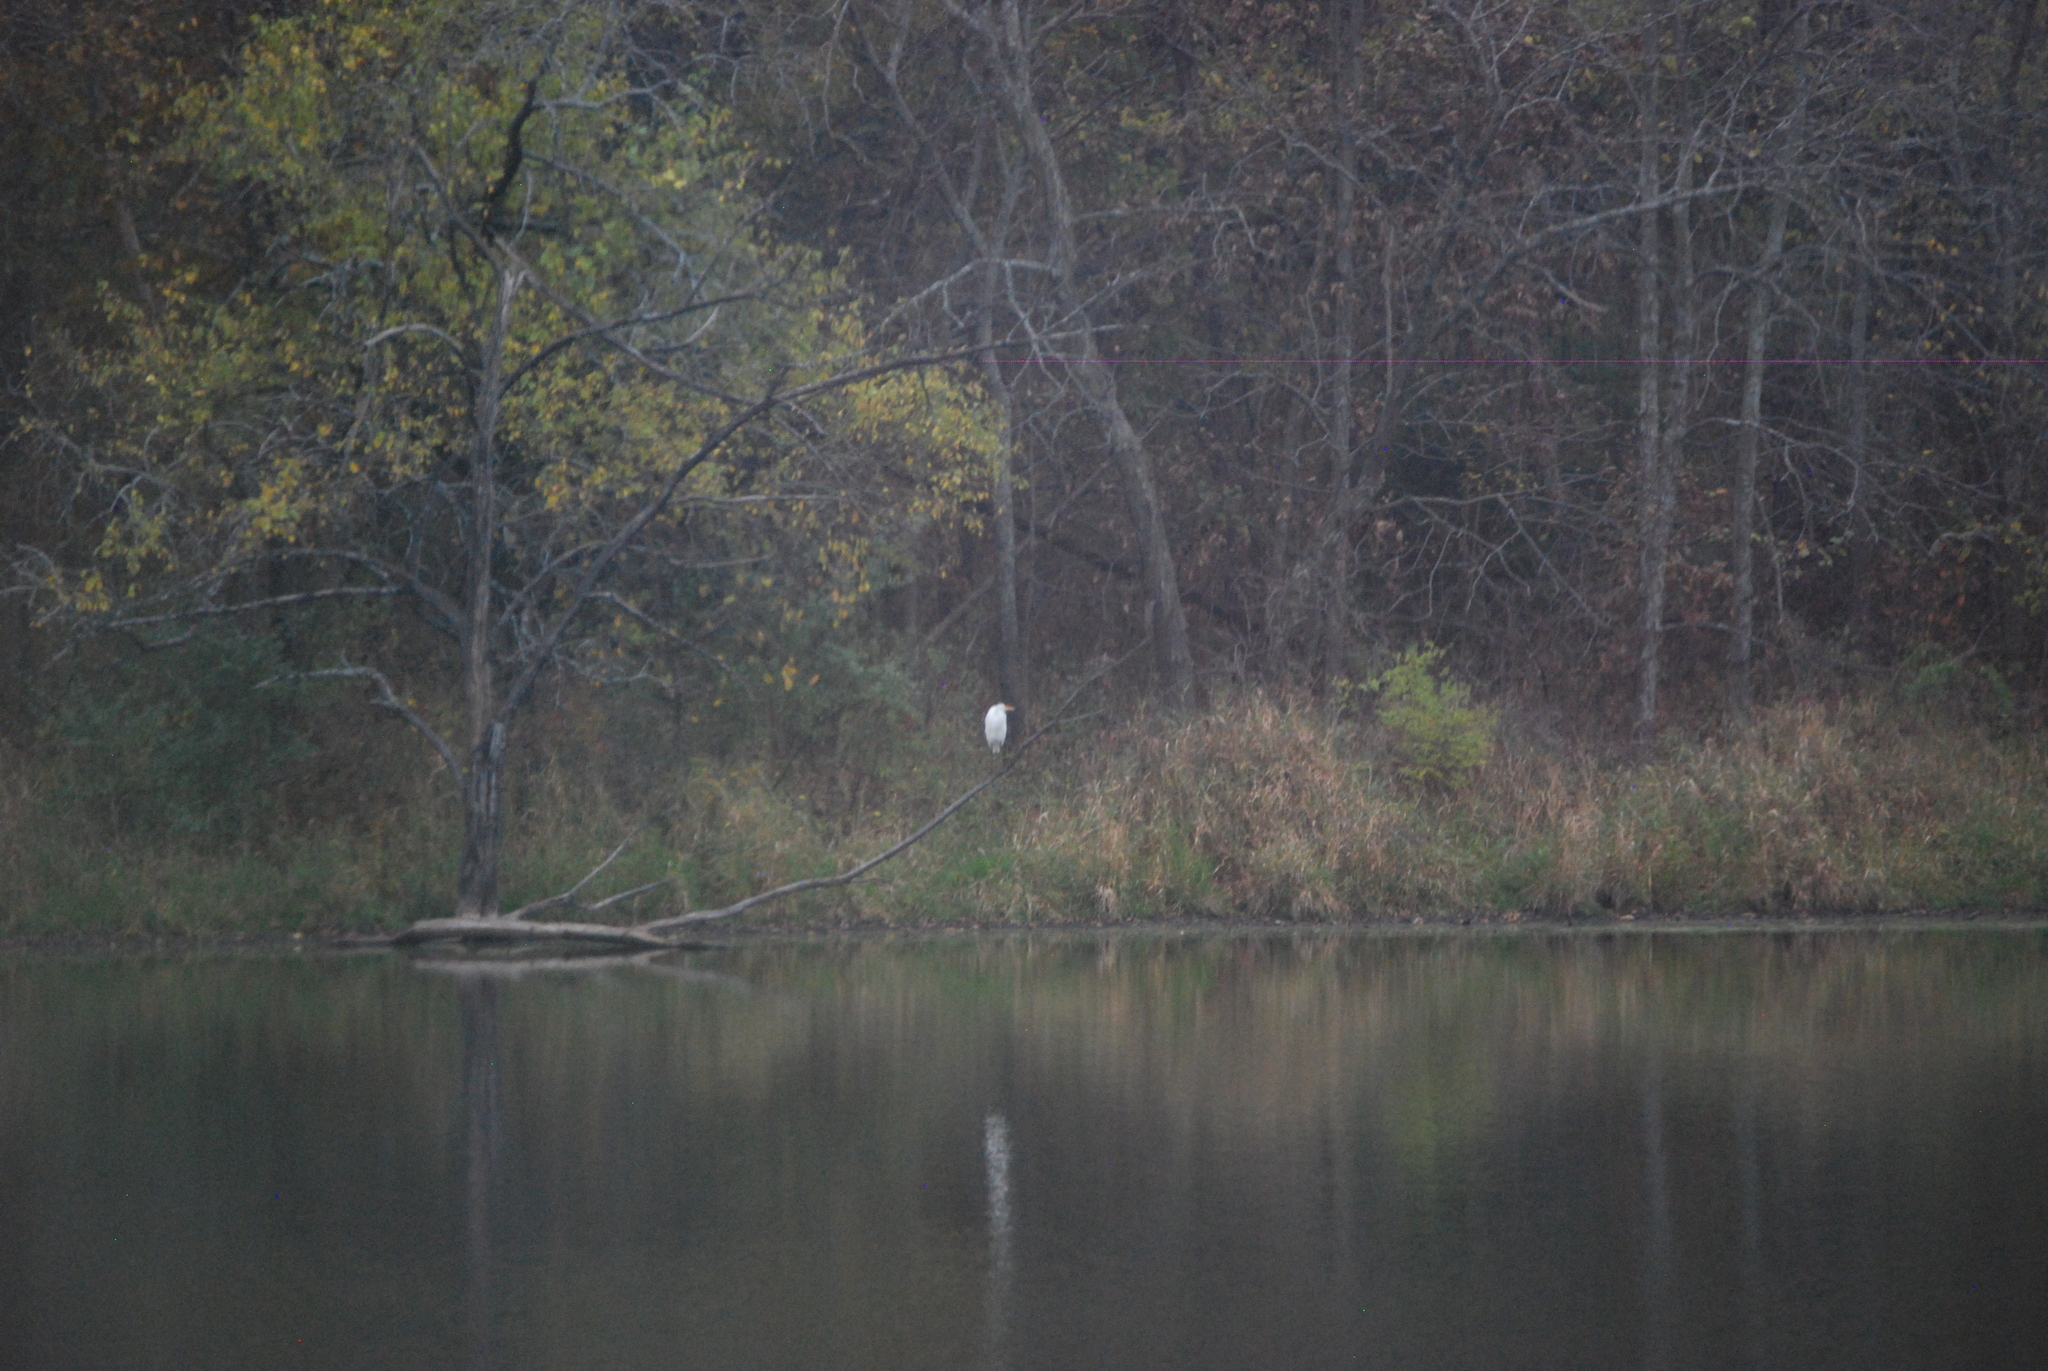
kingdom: Animalia
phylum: Chordata
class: Aves
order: Pelecaniformes
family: Ardeidae
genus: Ardea
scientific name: Ardea alba
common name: Great egret
